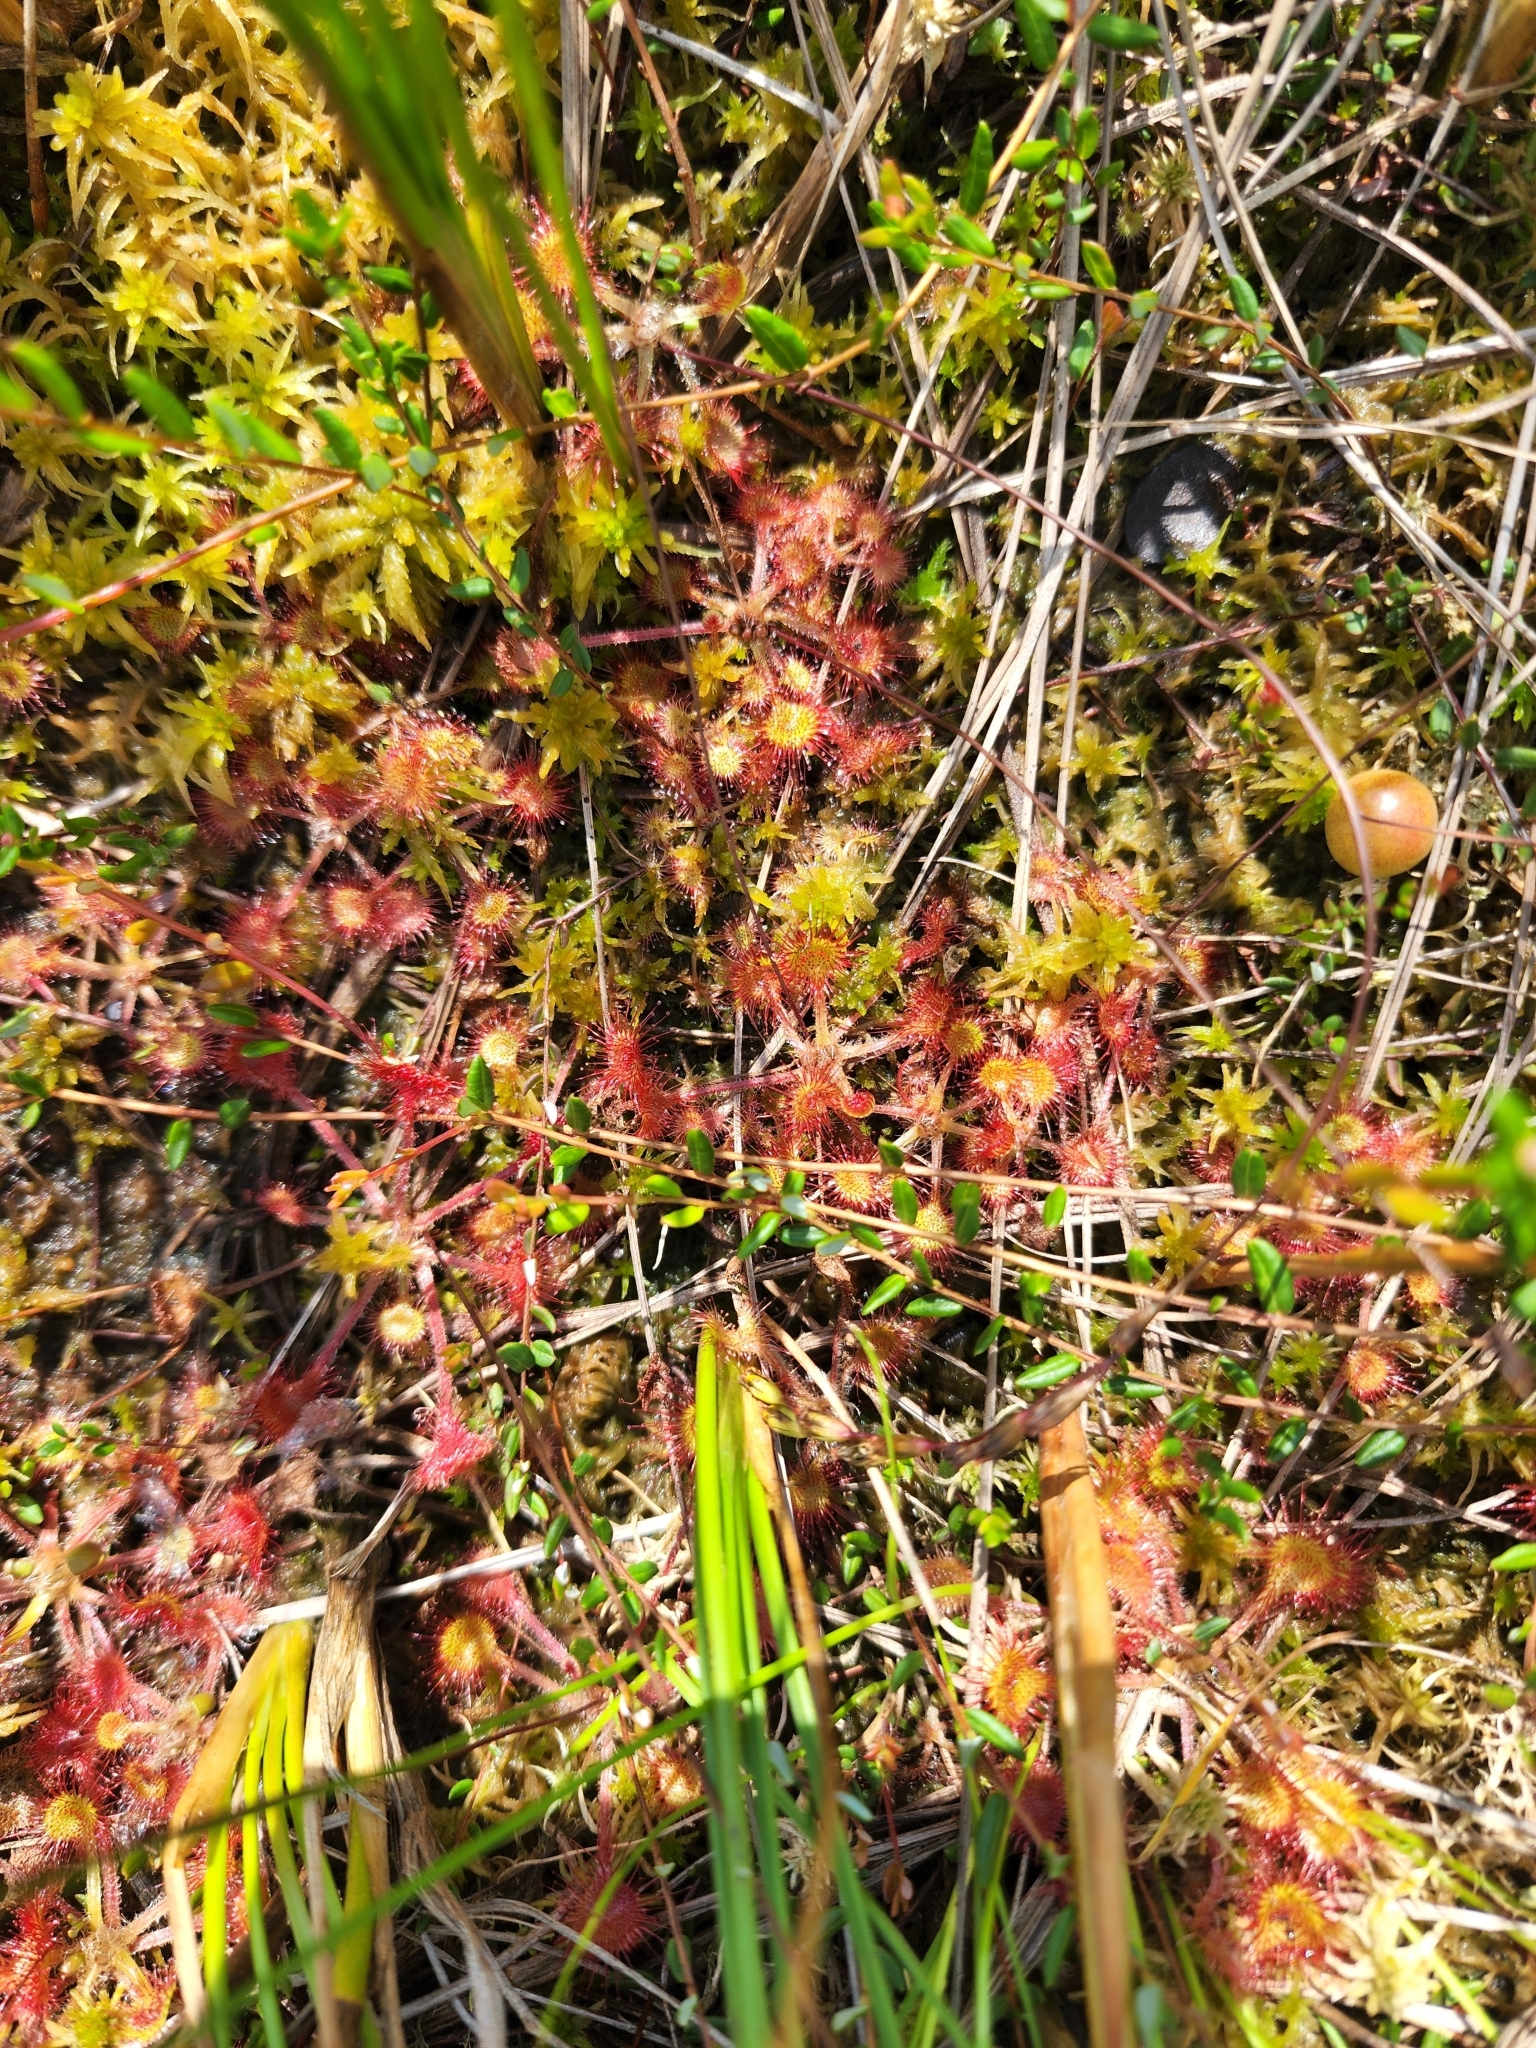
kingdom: Plantae
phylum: Tracheophyta
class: Magnoliopsida
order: Caryophyllales
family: Droseraceae
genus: Drosera
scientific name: Drosera rotundifolia
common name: Round-leaved sundew
